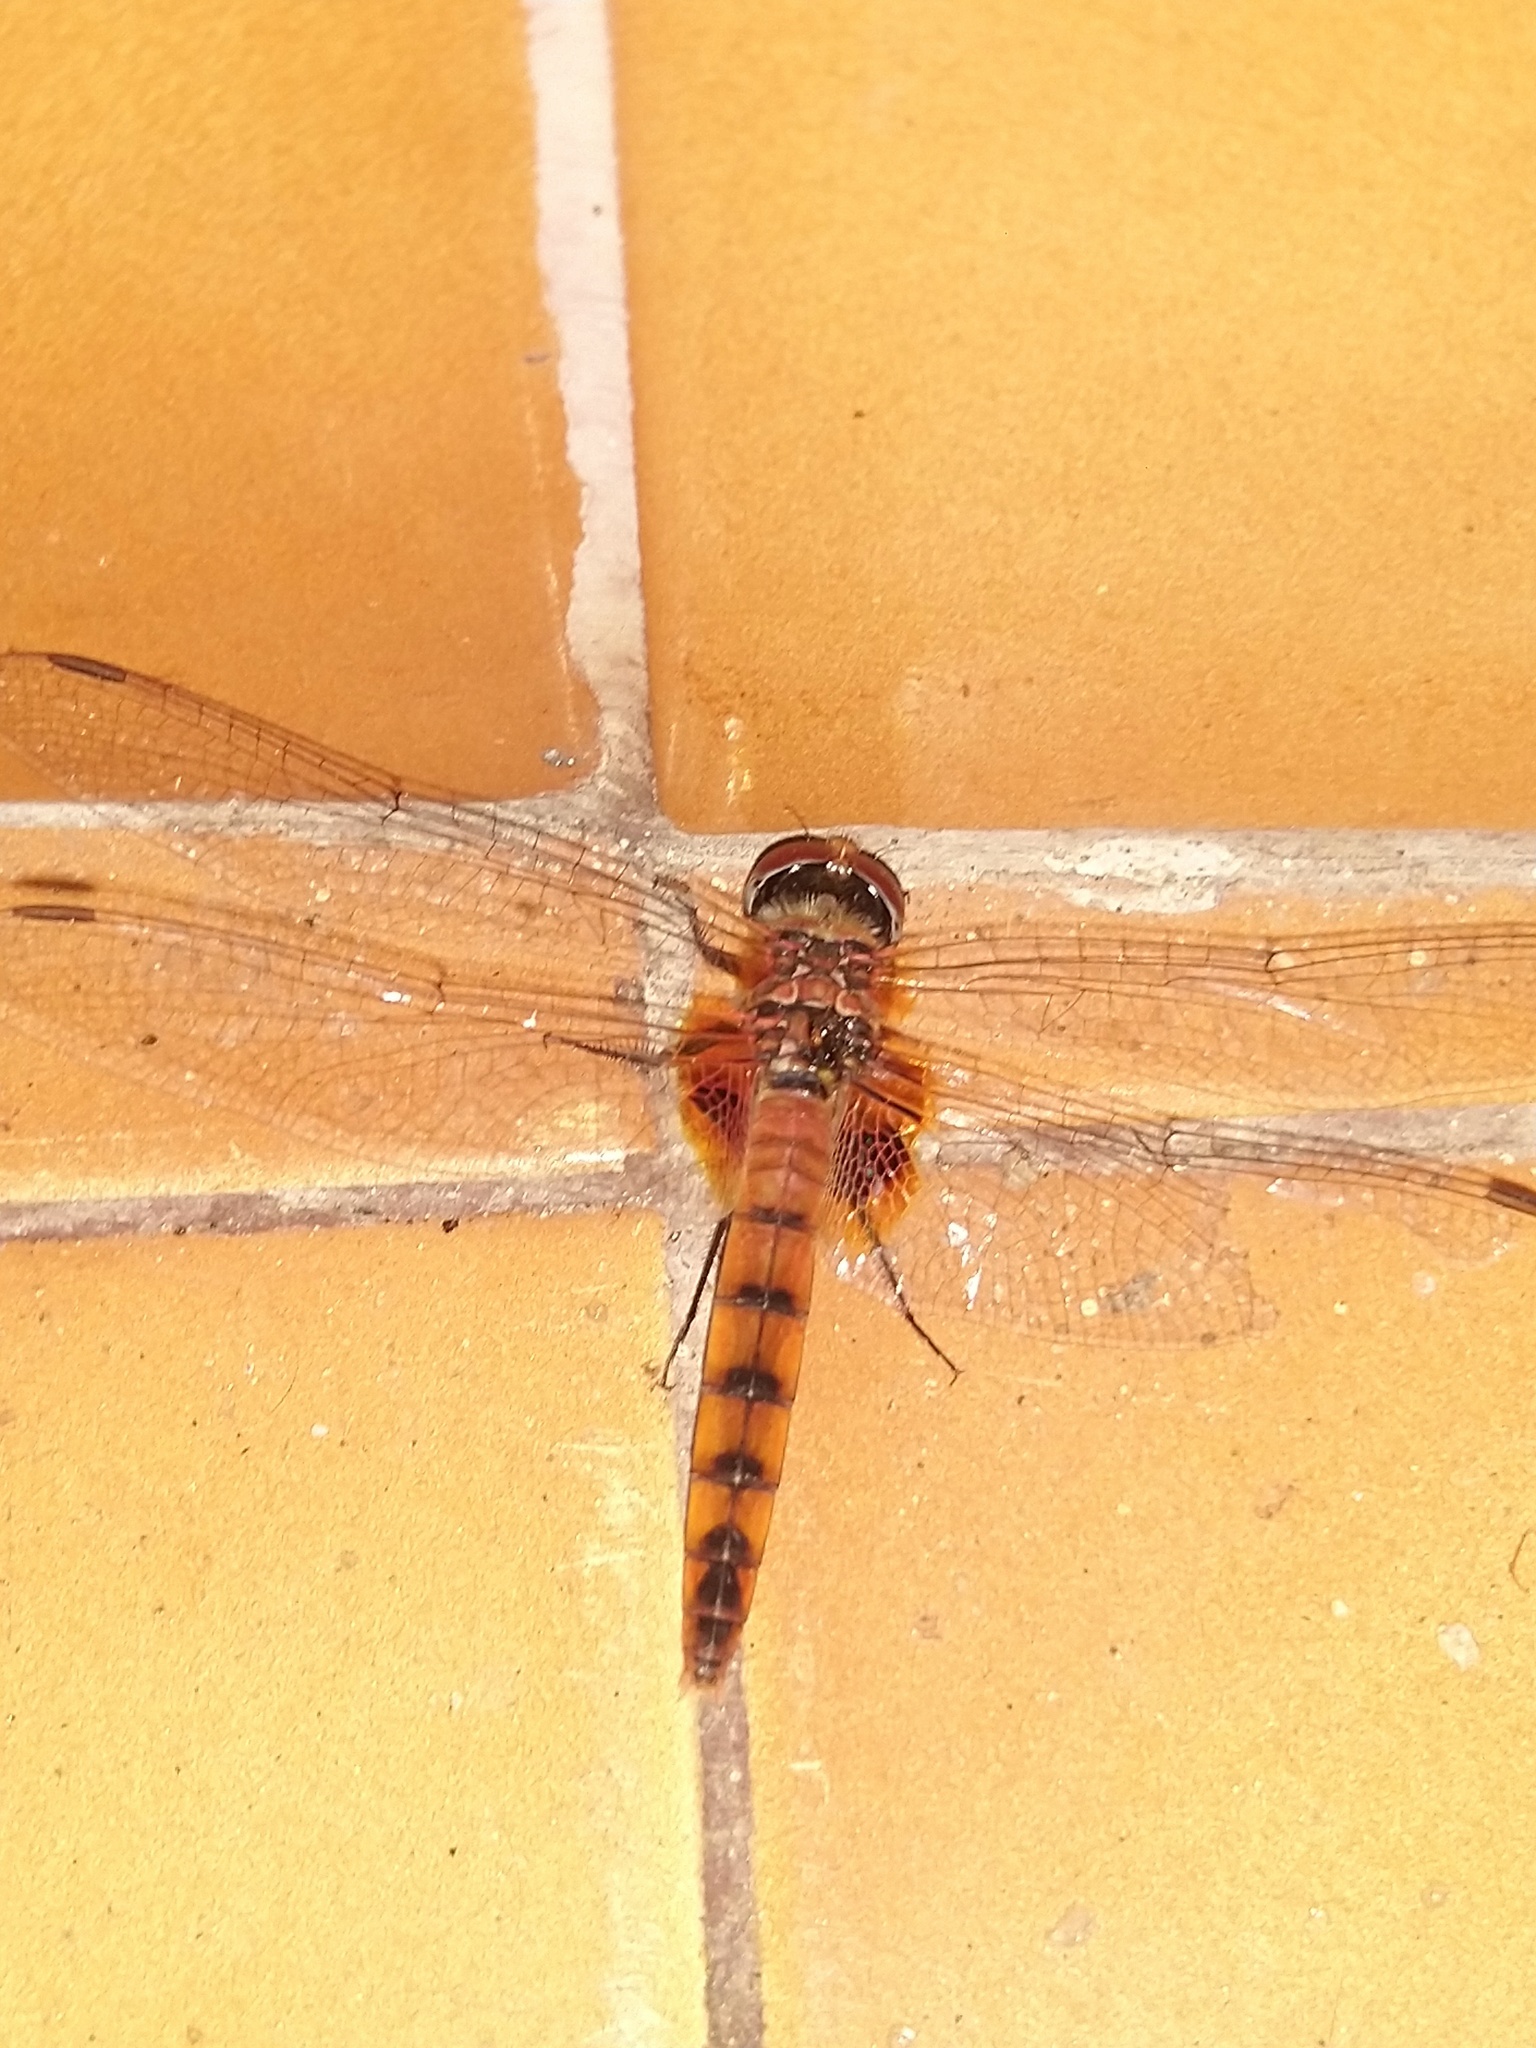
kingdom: Animalia
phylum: Arthropoda
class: Insecta
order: Odonata
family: Libellulidae
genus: Urothemis
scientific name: Urothemis signata
